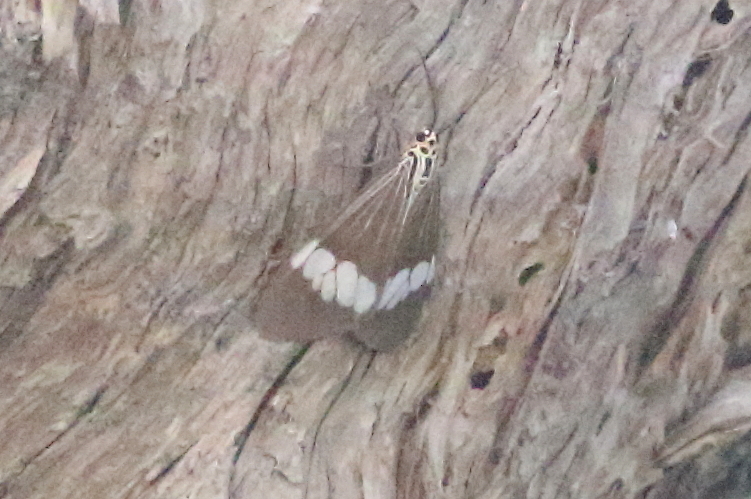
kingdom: Animalia
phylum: Arthropoda
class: Insecta
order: Lepidoptera
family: Erebidae
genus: Nyctemera
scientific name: Nyctemera baulus
